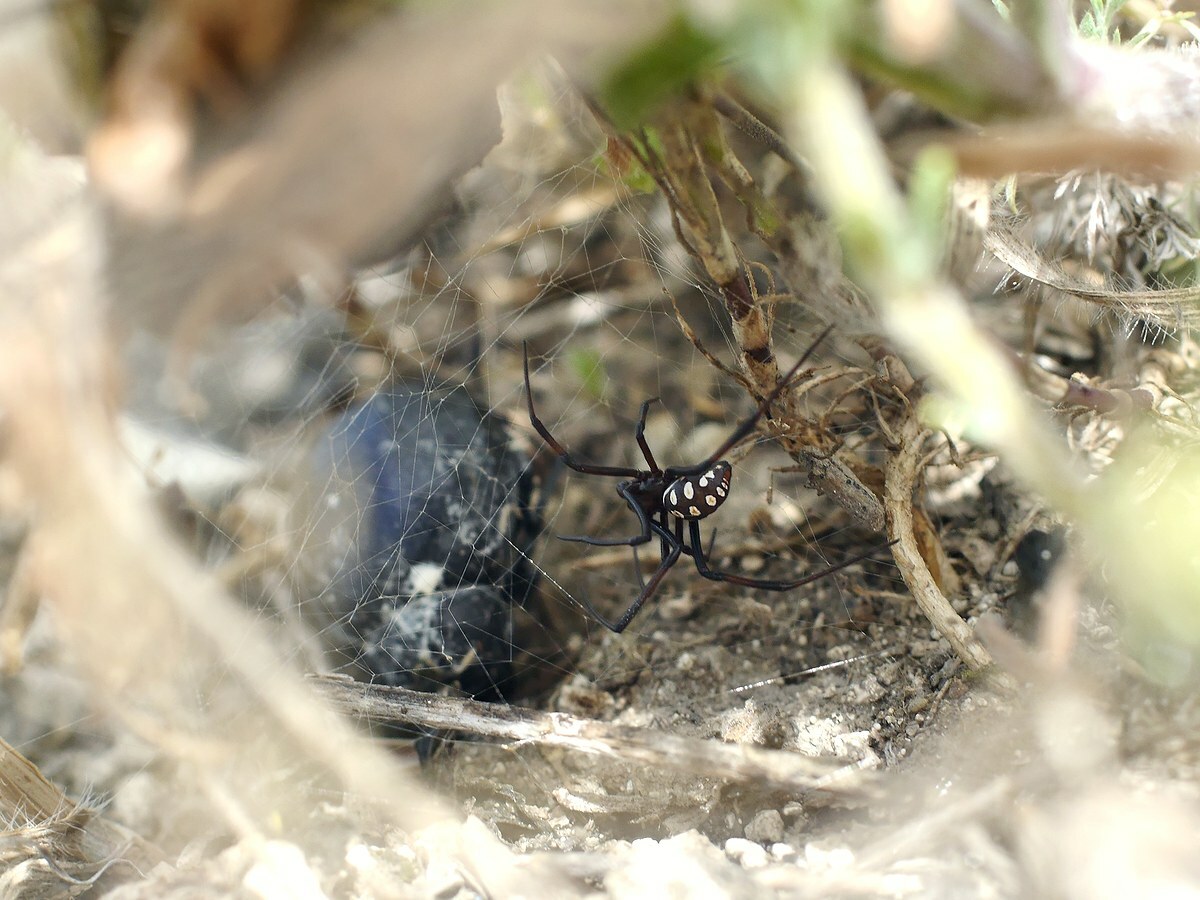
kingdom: Animalia
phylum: Arthropoda
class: Arachnida
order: Araneae
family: Theridiidae
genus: Latrodectus
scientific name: Latrodectus tredecimguttatus
